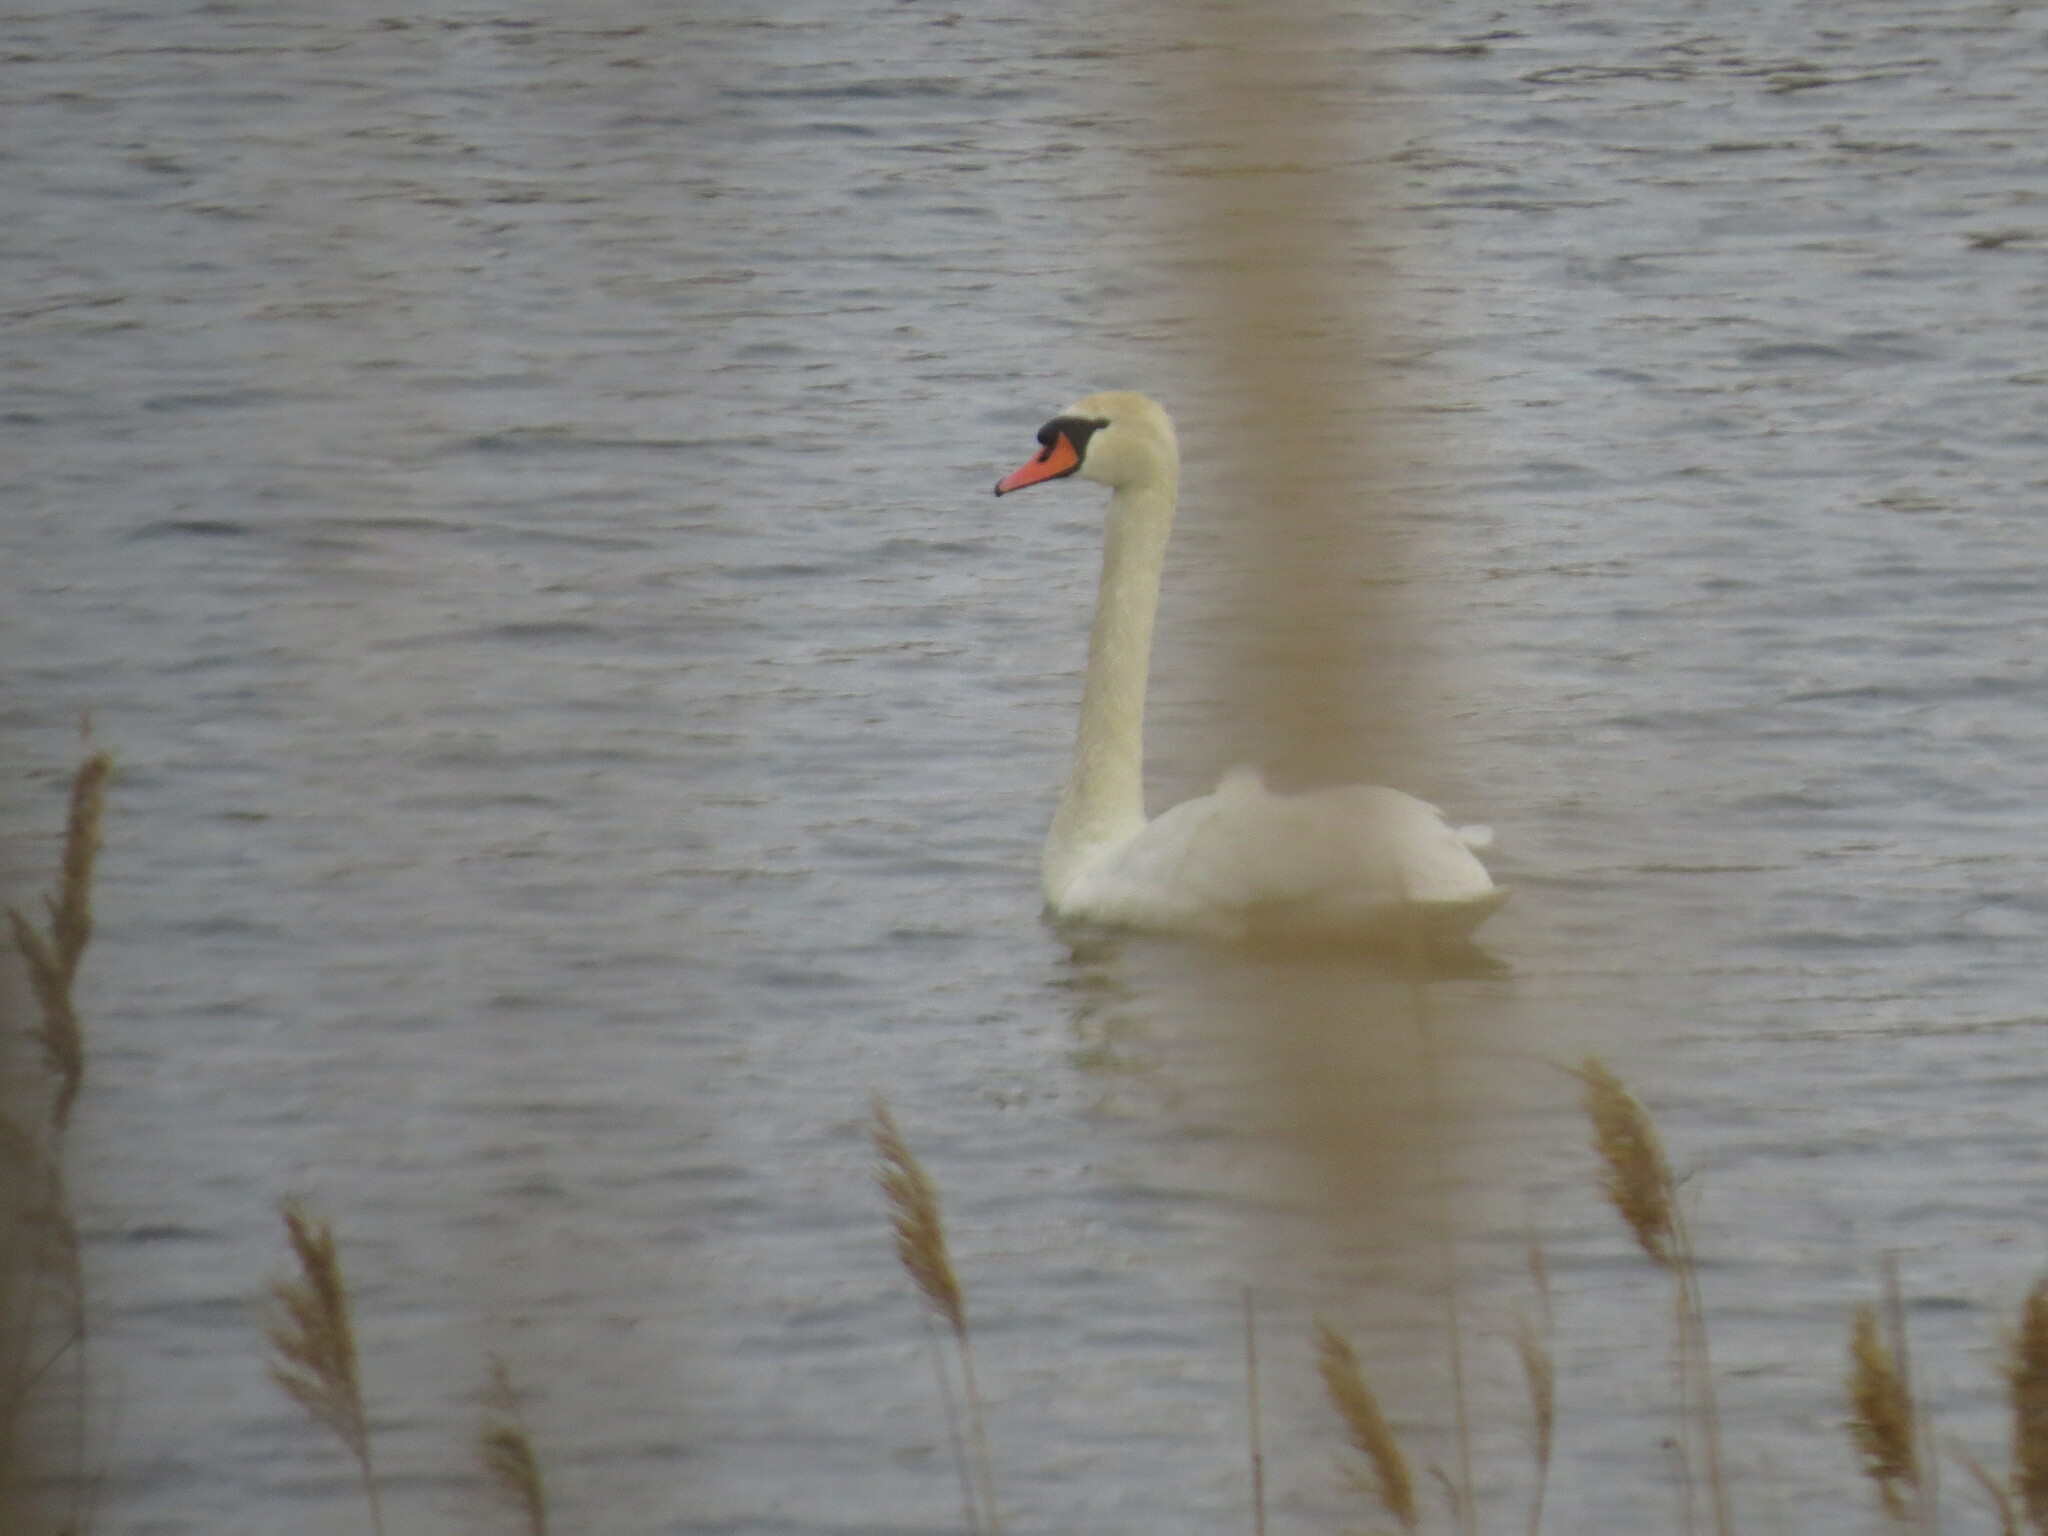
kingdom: Animalia
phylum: Chordata
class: Aves
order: Anseriformes
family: Anatidae
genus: Cygnus
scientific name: Cygnus olor
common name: Mute swan
